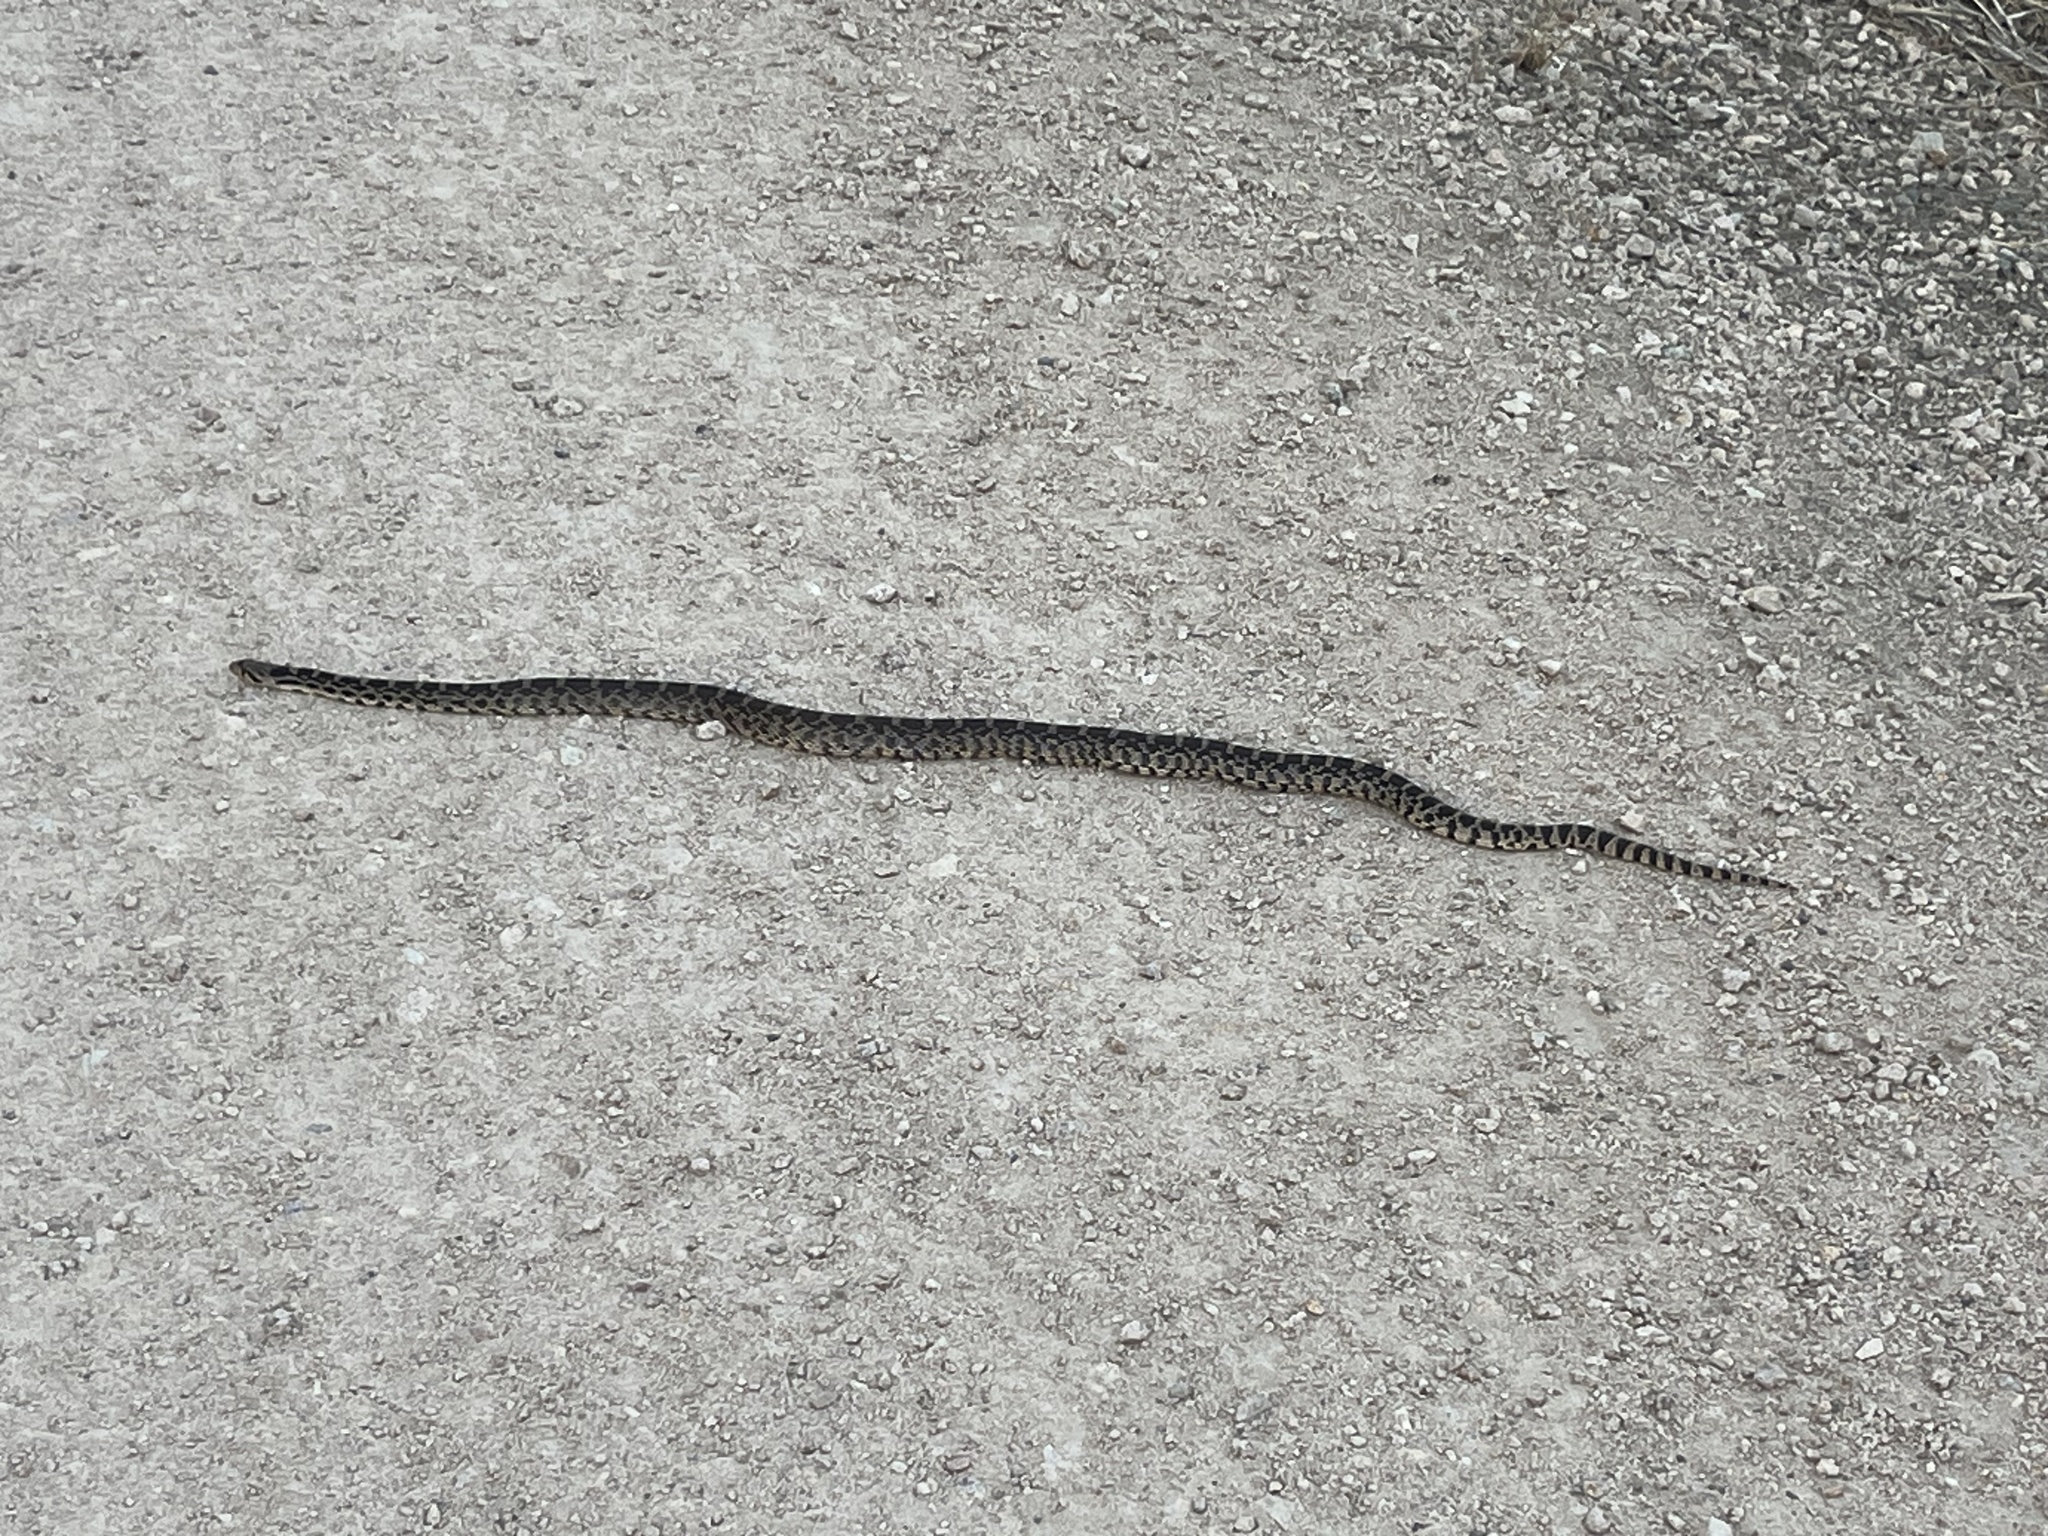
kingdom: Animalia
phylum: Chordata
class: Squamata
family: Colubridae
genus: Pituophis
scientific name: Pituophis catenifer
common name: Gopher snake
